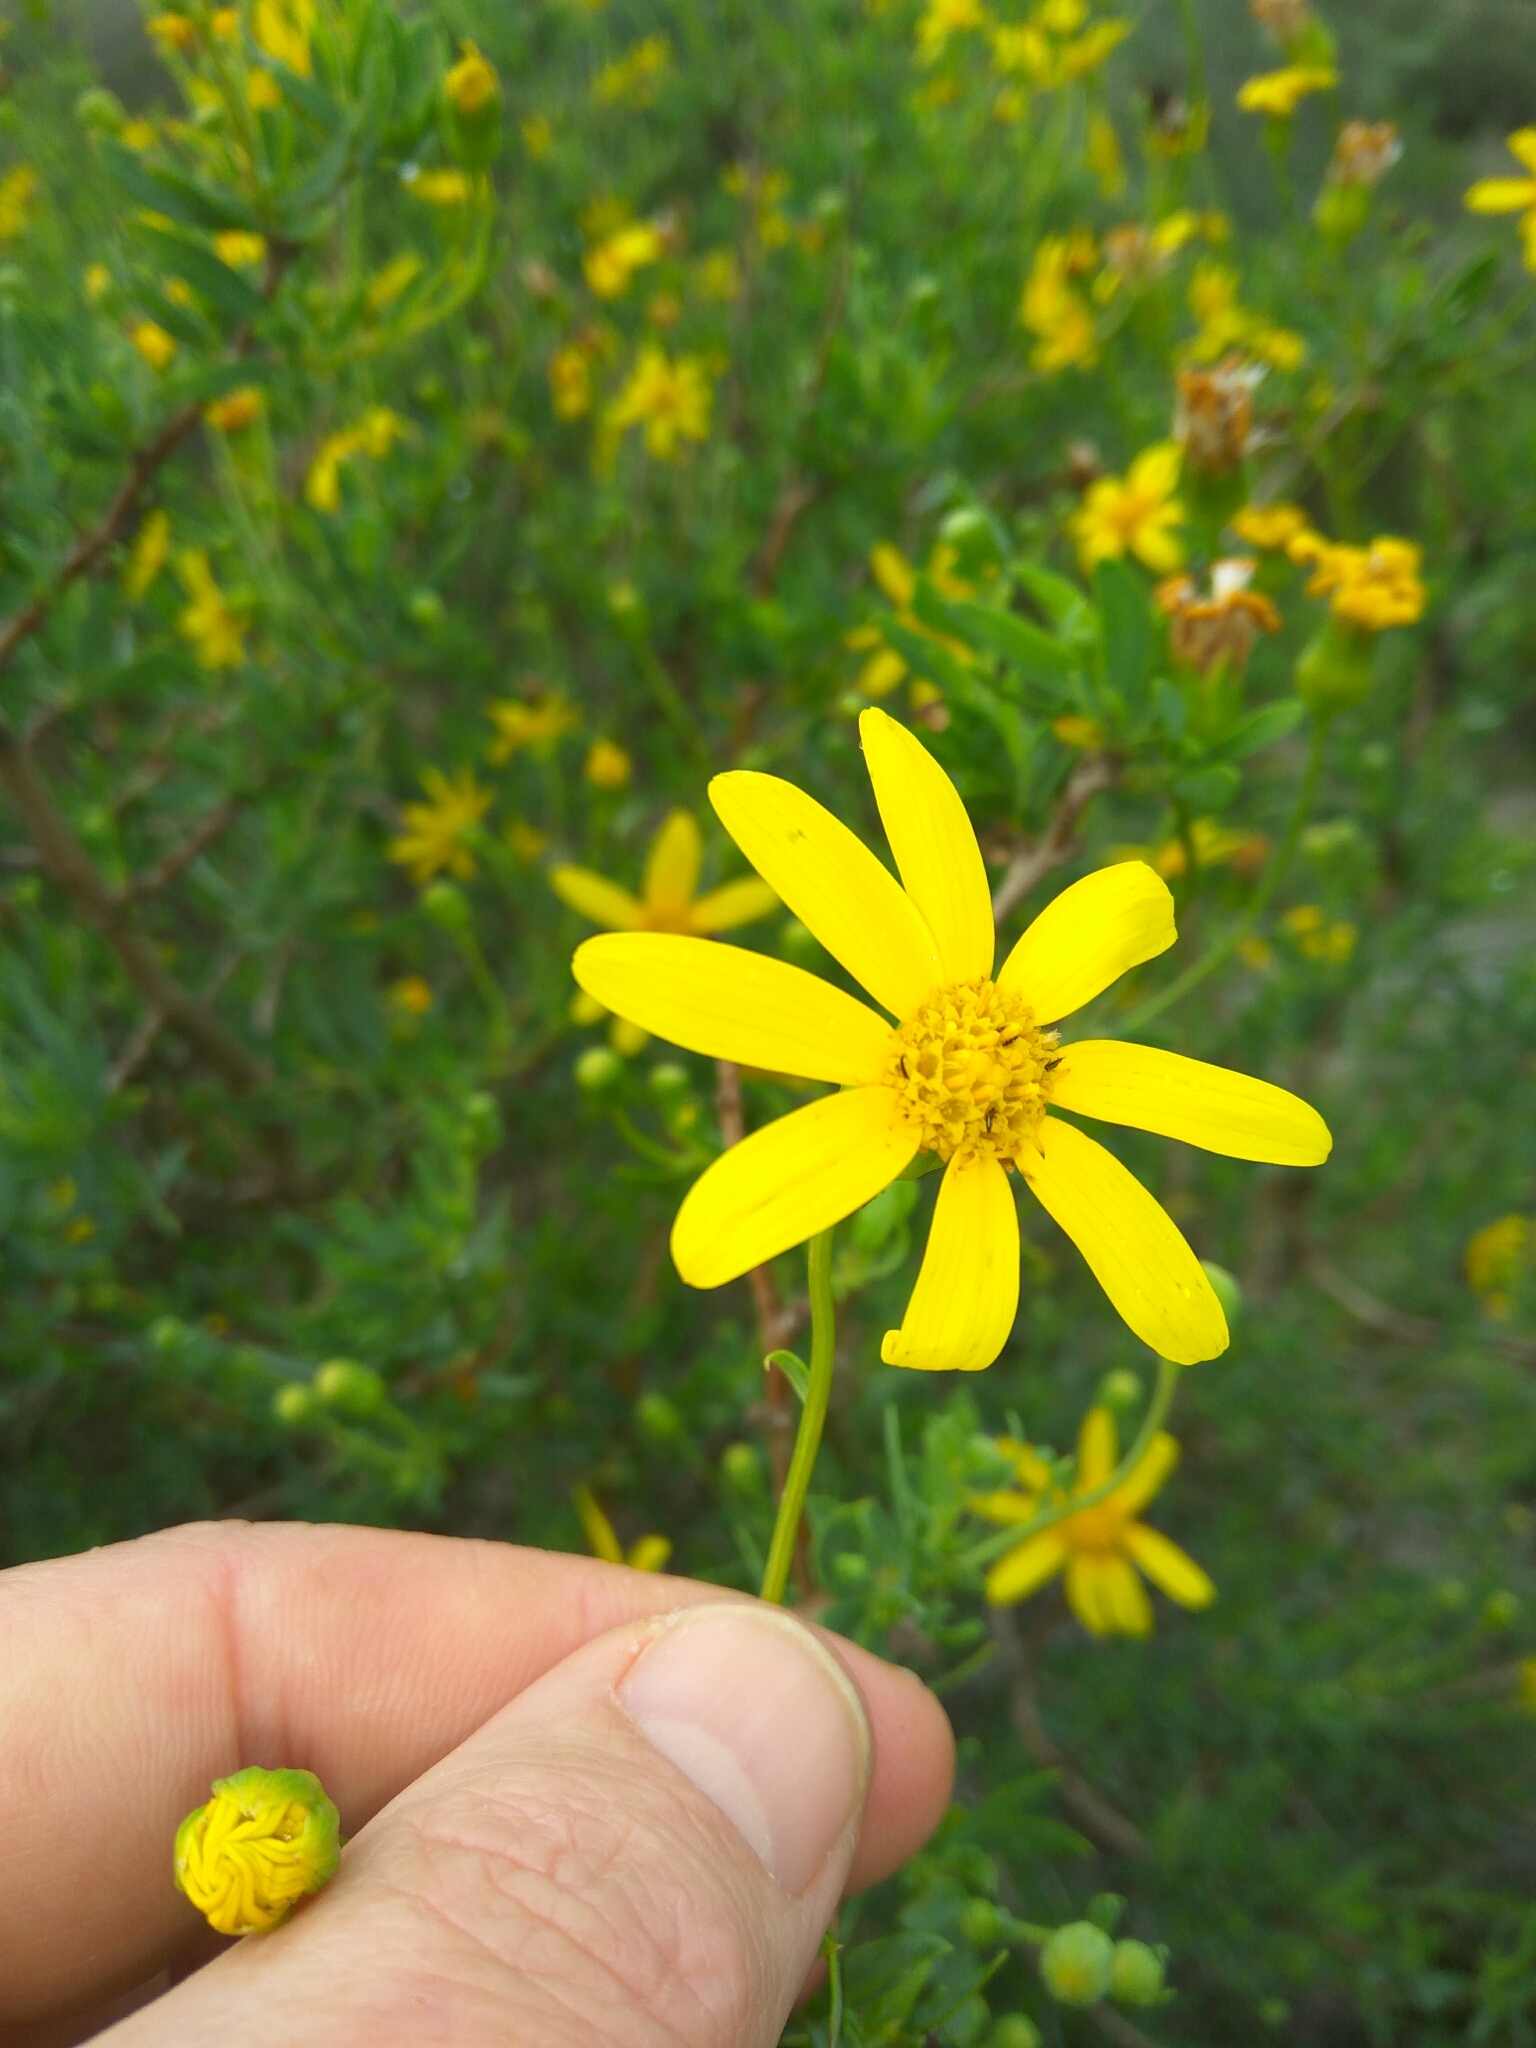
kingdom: Plantae
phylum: Tracheophyta
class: Magnoliopsida
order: Asterales
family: Asteraceae
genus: Othonna
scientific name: Othonna coronopifolia
